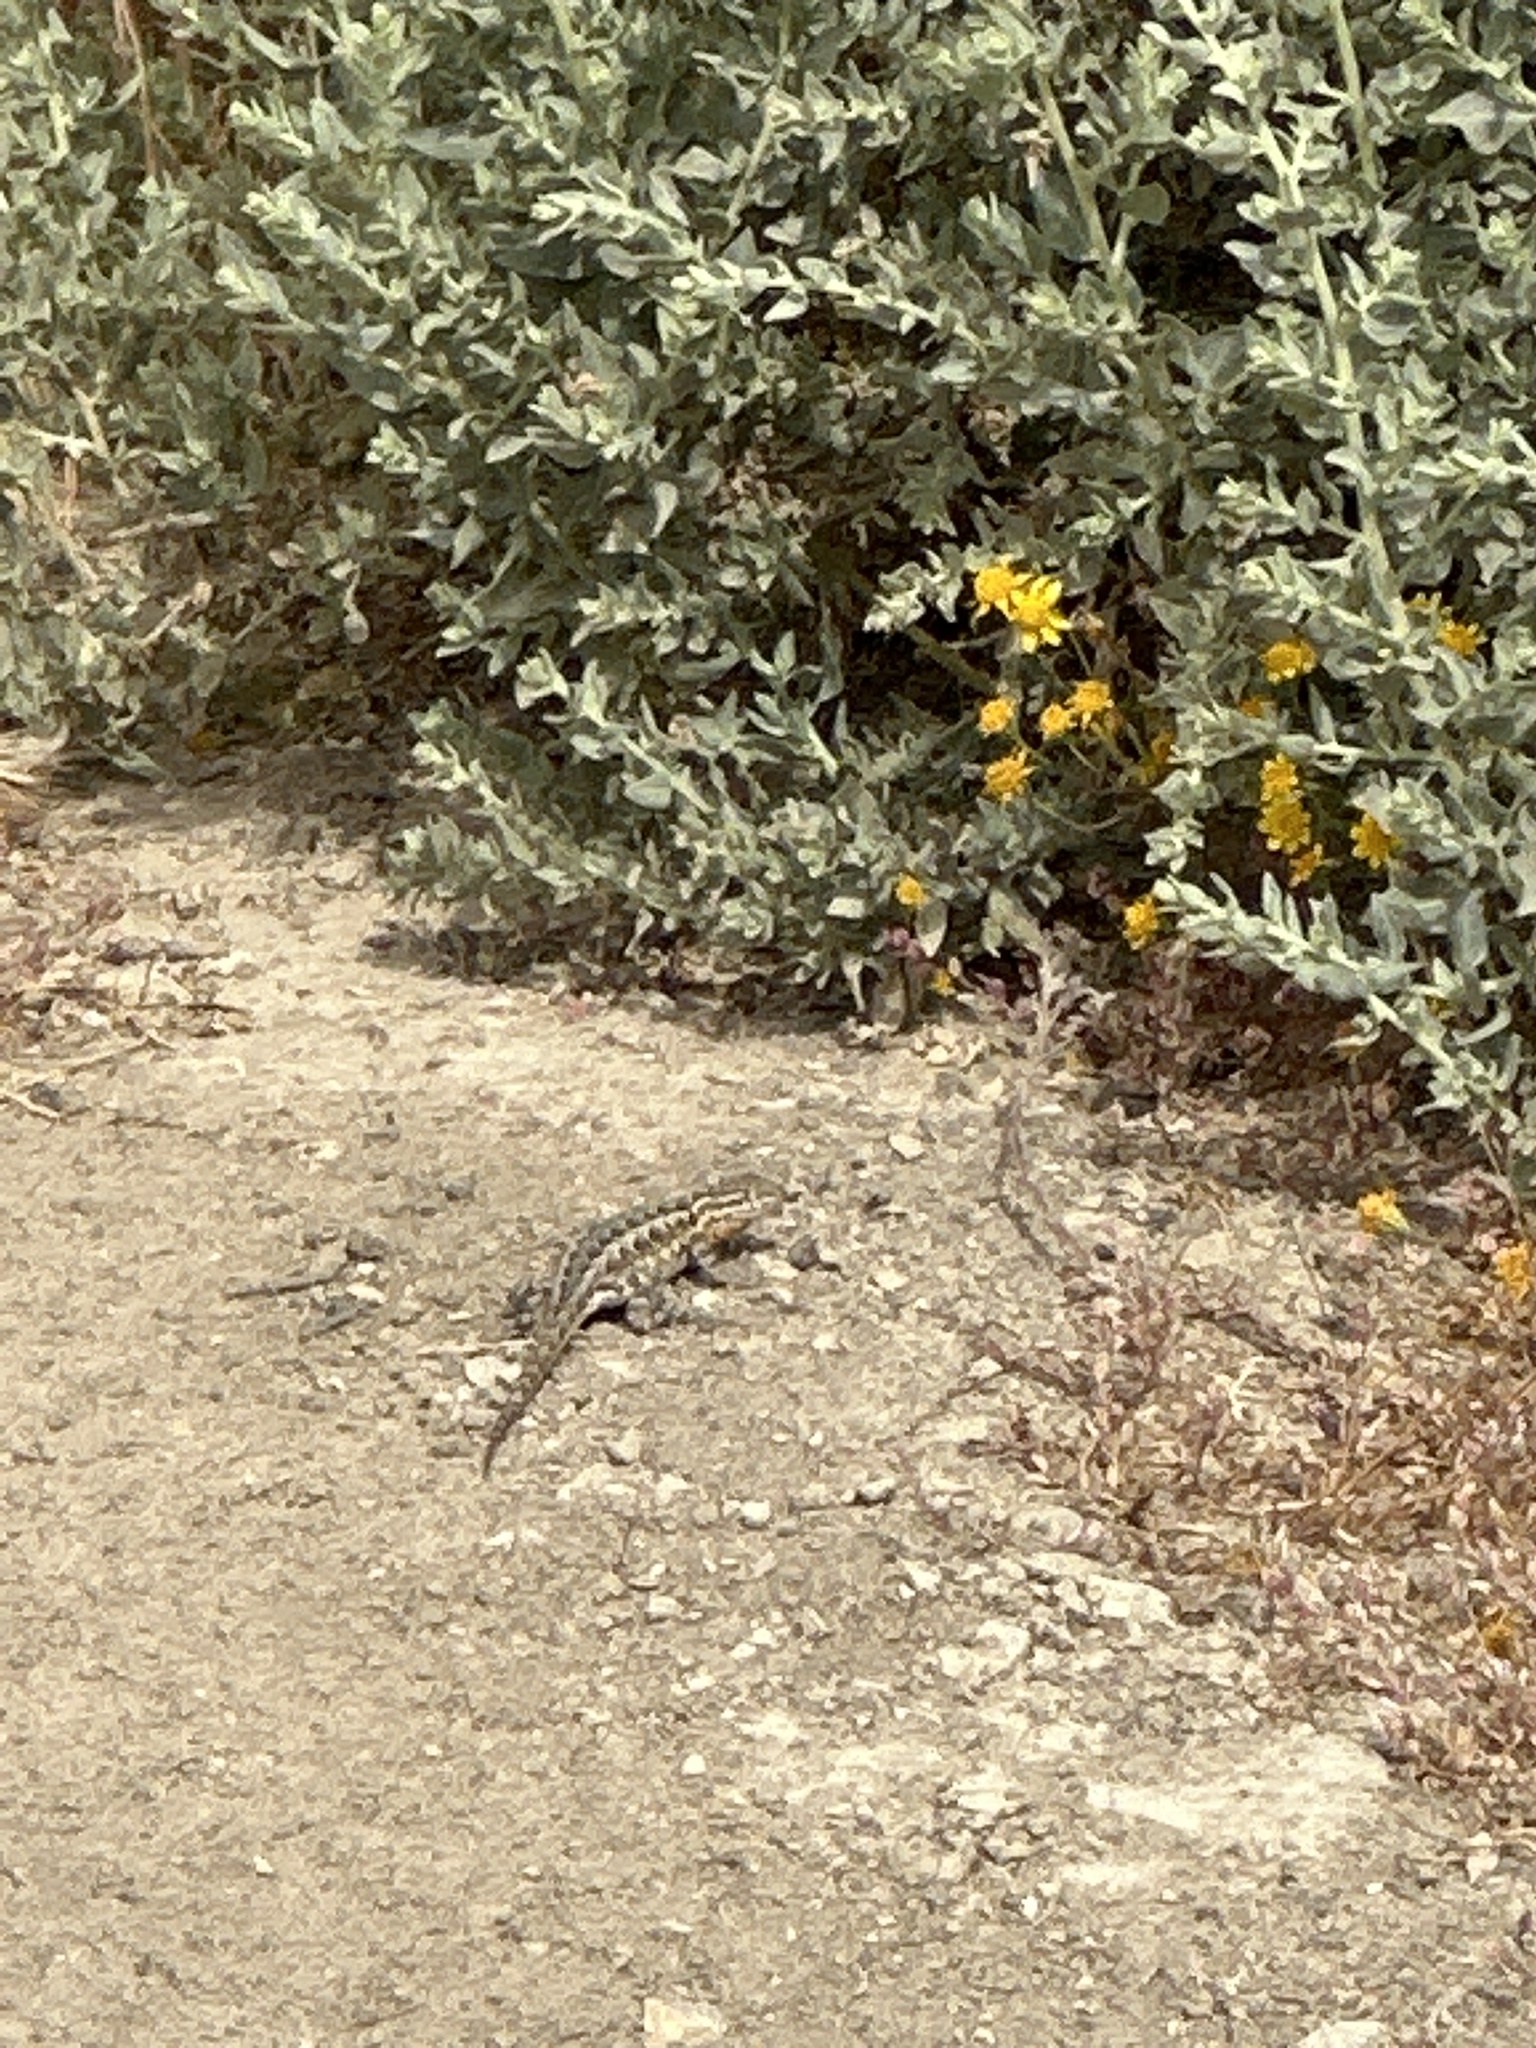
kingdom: Animalia
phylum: Chordata
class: Squamata
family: Phrynosomatidae
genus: Uta
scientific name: Uta stansburiana
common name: Side-blotched lizard
